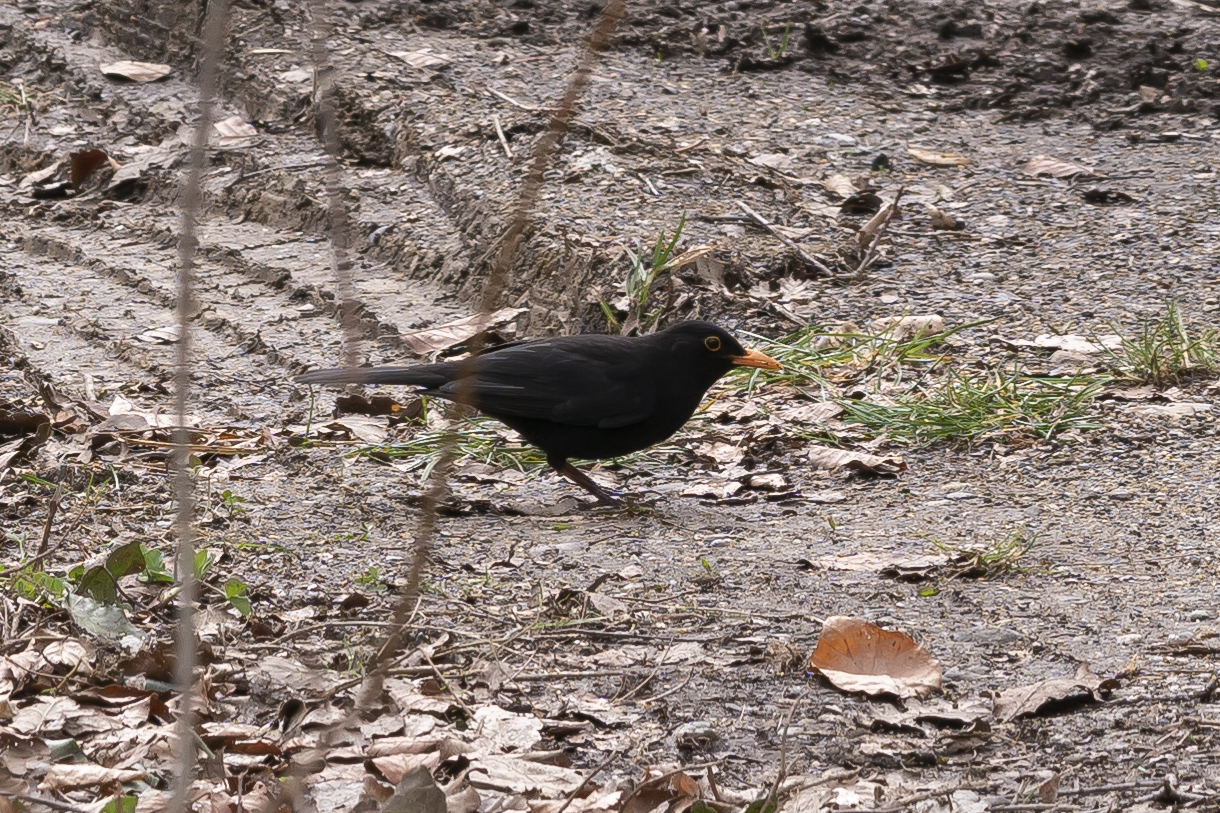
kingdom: Animalia
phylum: Chordata
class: Aves
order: Passeriformes
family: Turdidae
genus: Turdus
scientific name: Turdus merula
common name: Common blackbird
